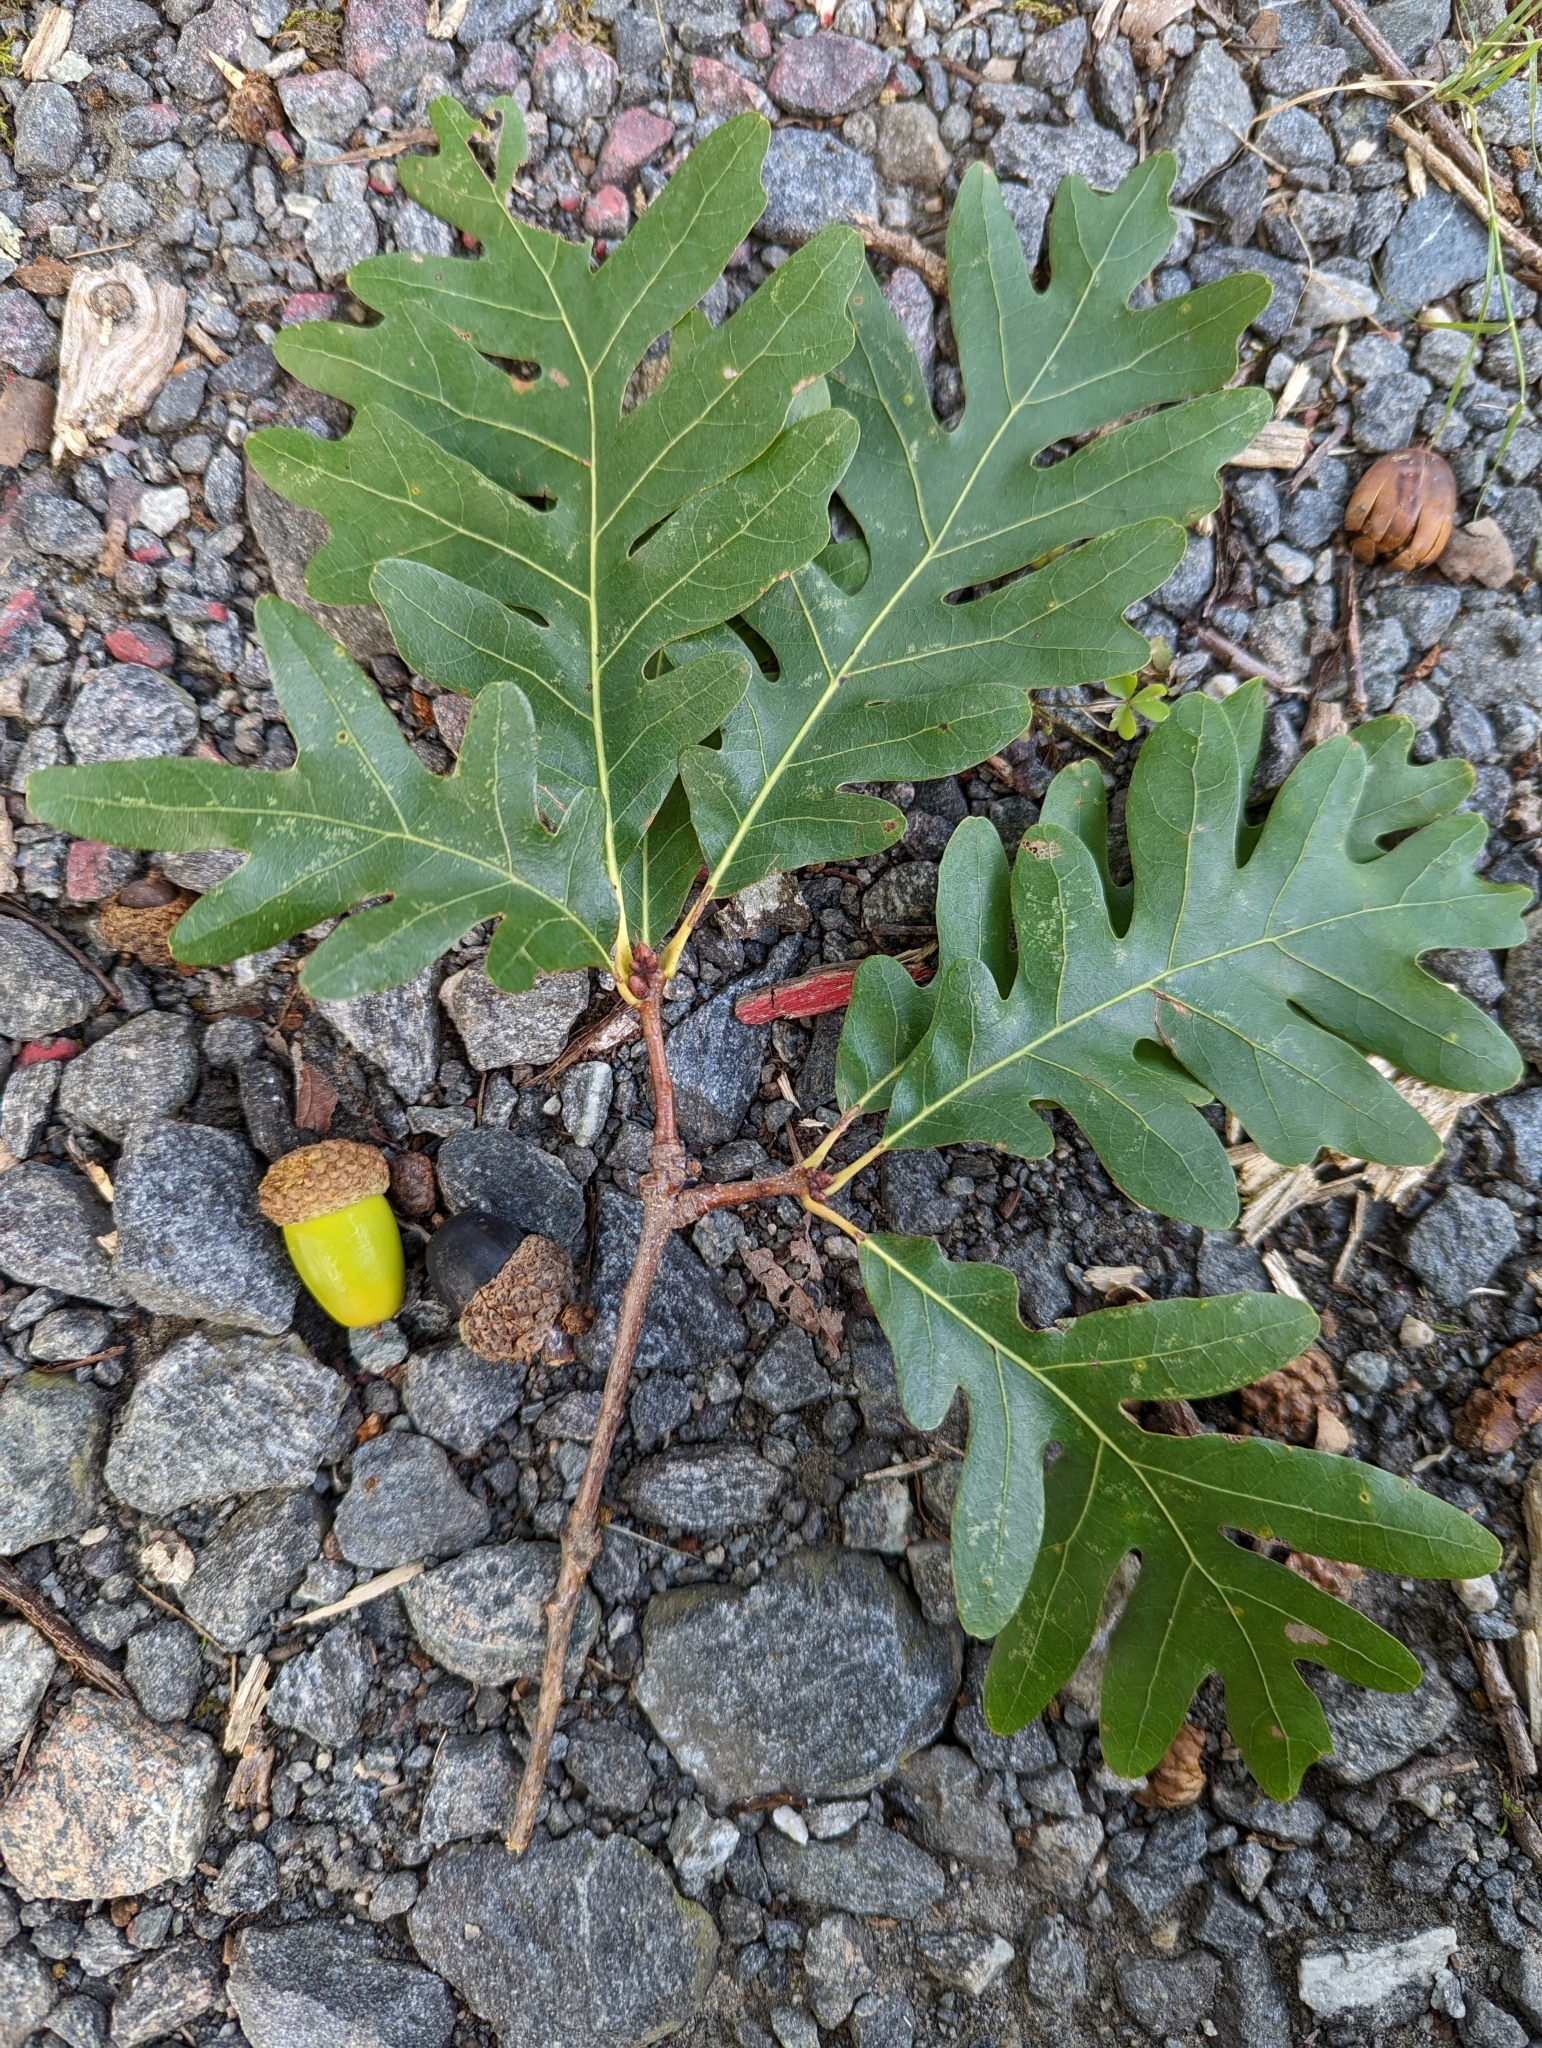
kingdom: Plantae
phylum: Tracheophyta
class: Magnoliopsida
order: Fagales
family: Fagaceae
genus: Quercus
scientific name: Quercus alba
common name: White oak
